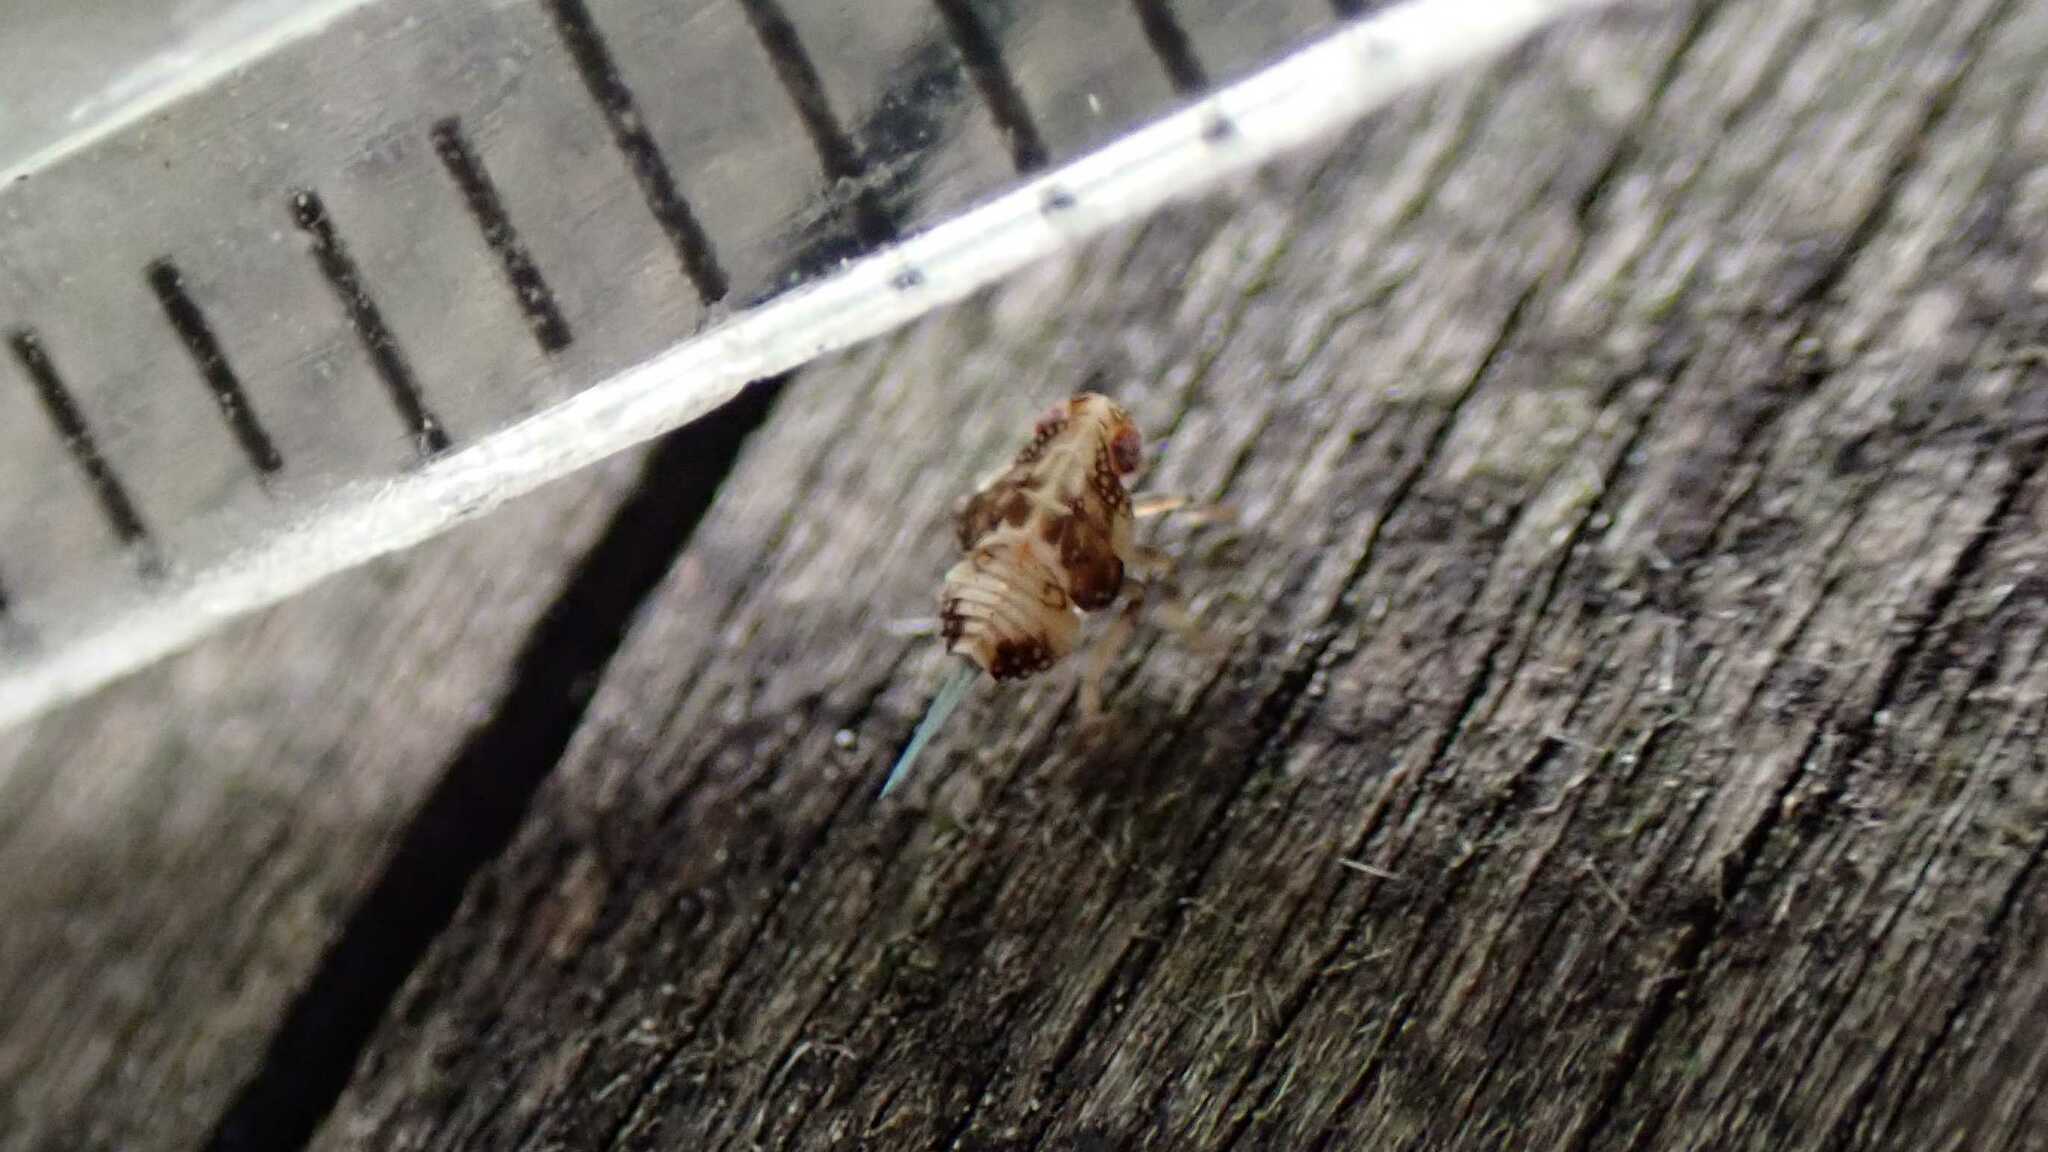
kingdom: Animalia
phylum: Arthropoda
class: Insecta
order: Hemiptera
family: Issidae
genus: Issus
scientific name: Issus coleoptratus
